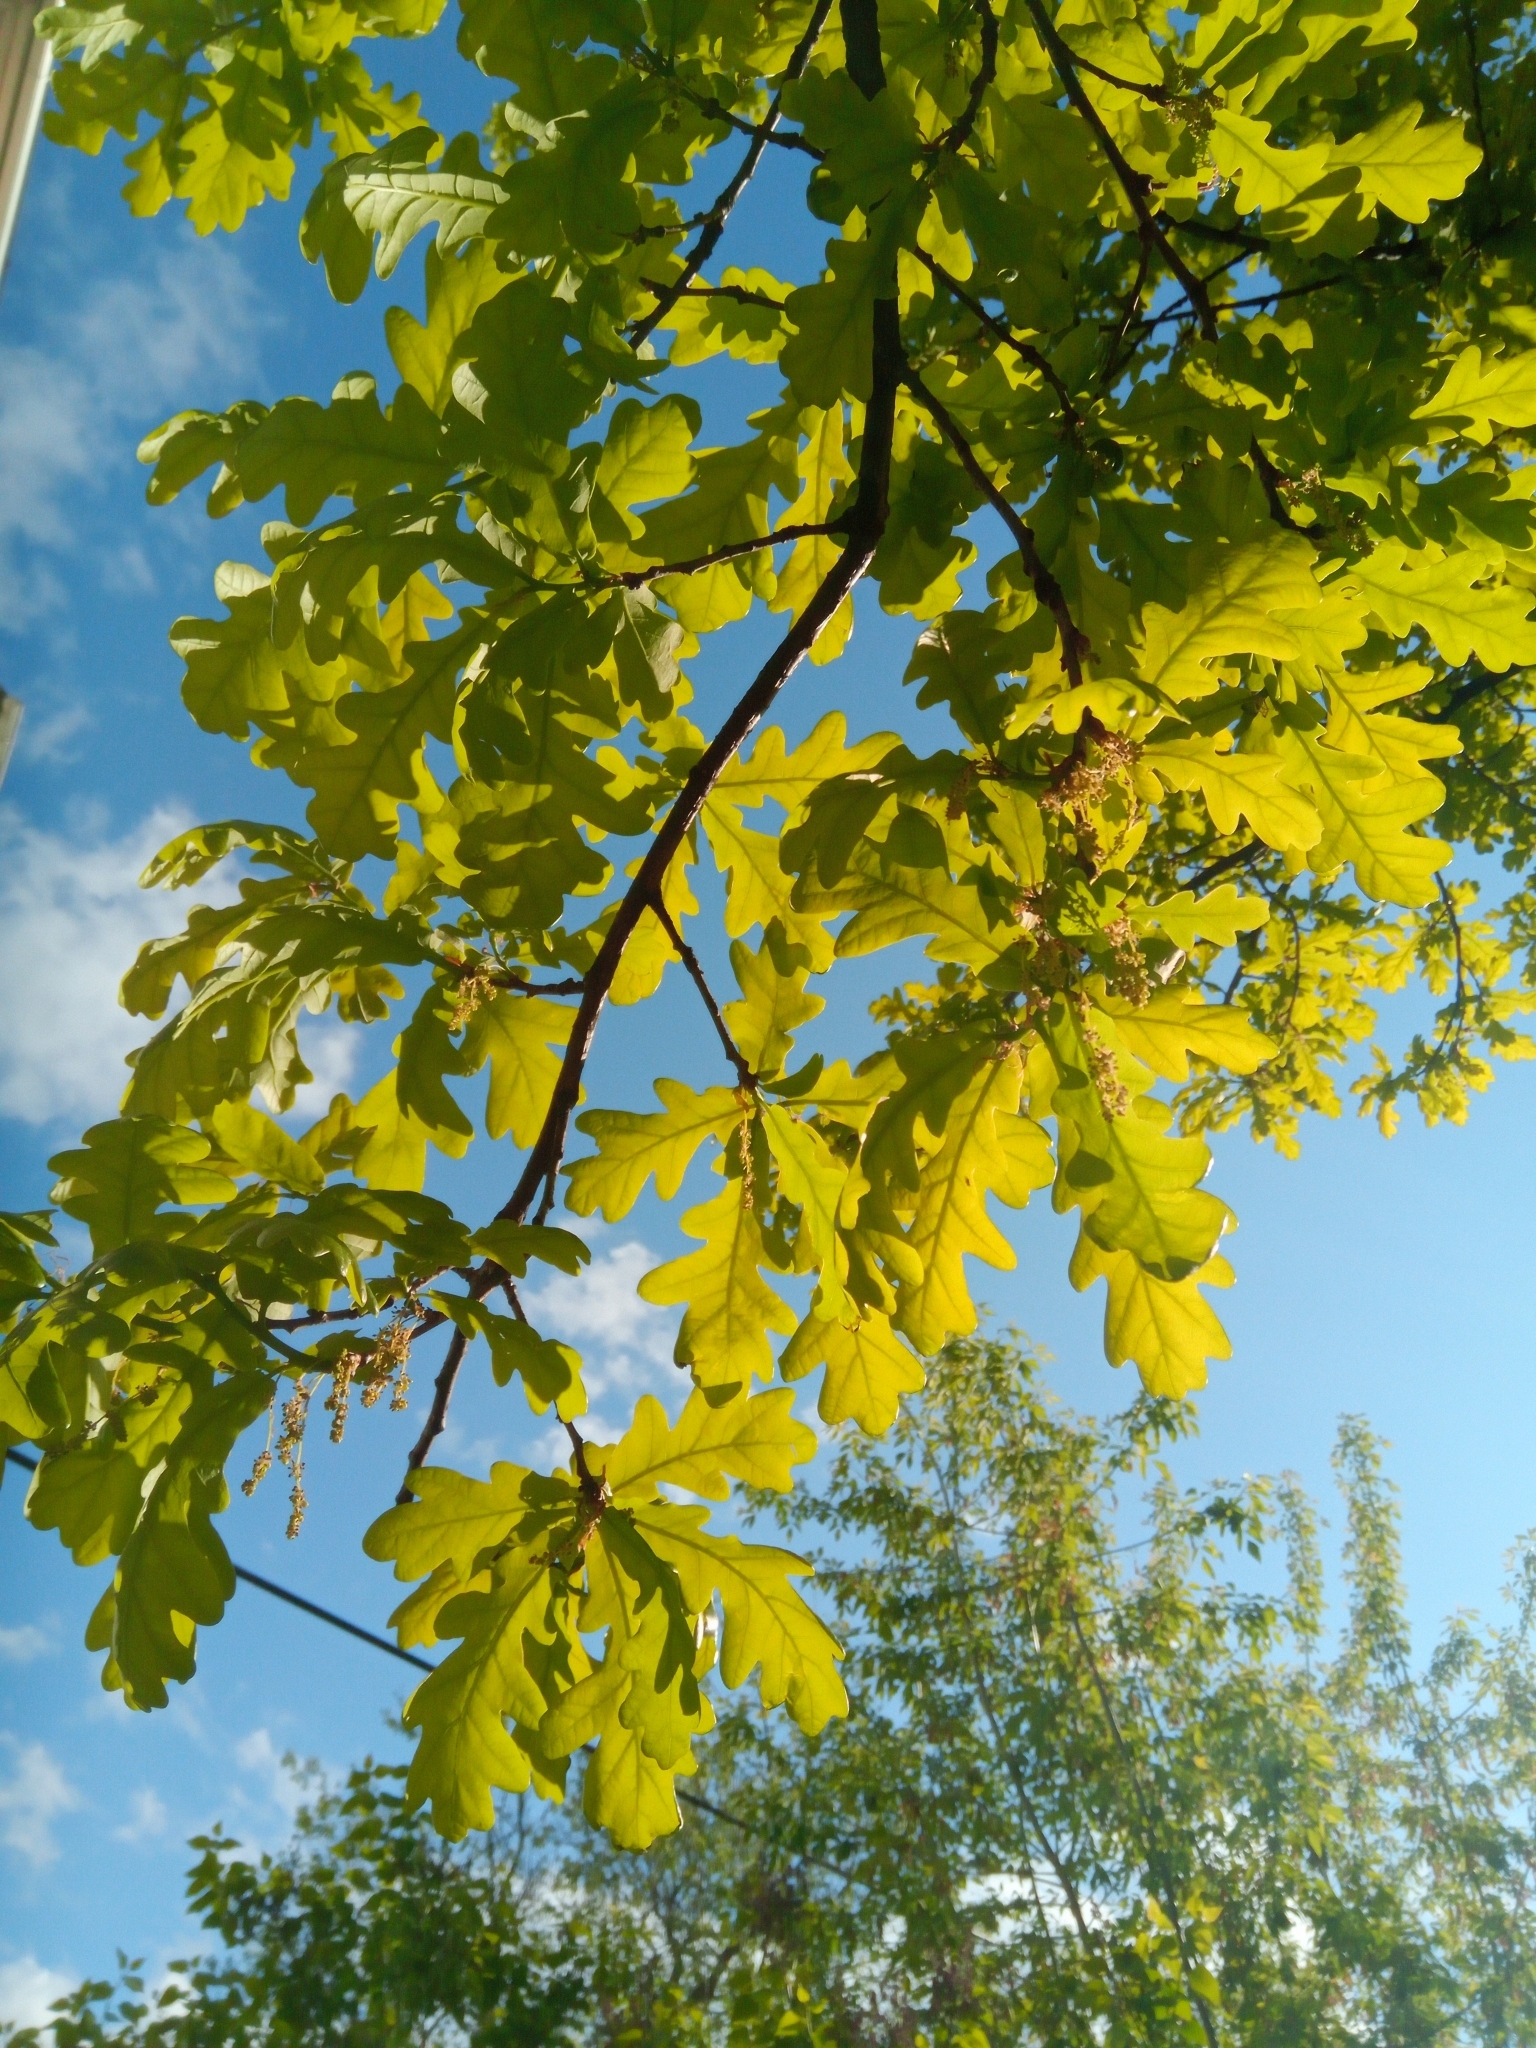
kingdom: Plantae
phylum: Tracheophyta
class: Magnoliopsida
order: Fagales
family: Fagaceae
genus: Quercus
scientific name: Quercus robur
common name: Pedunculate oak
